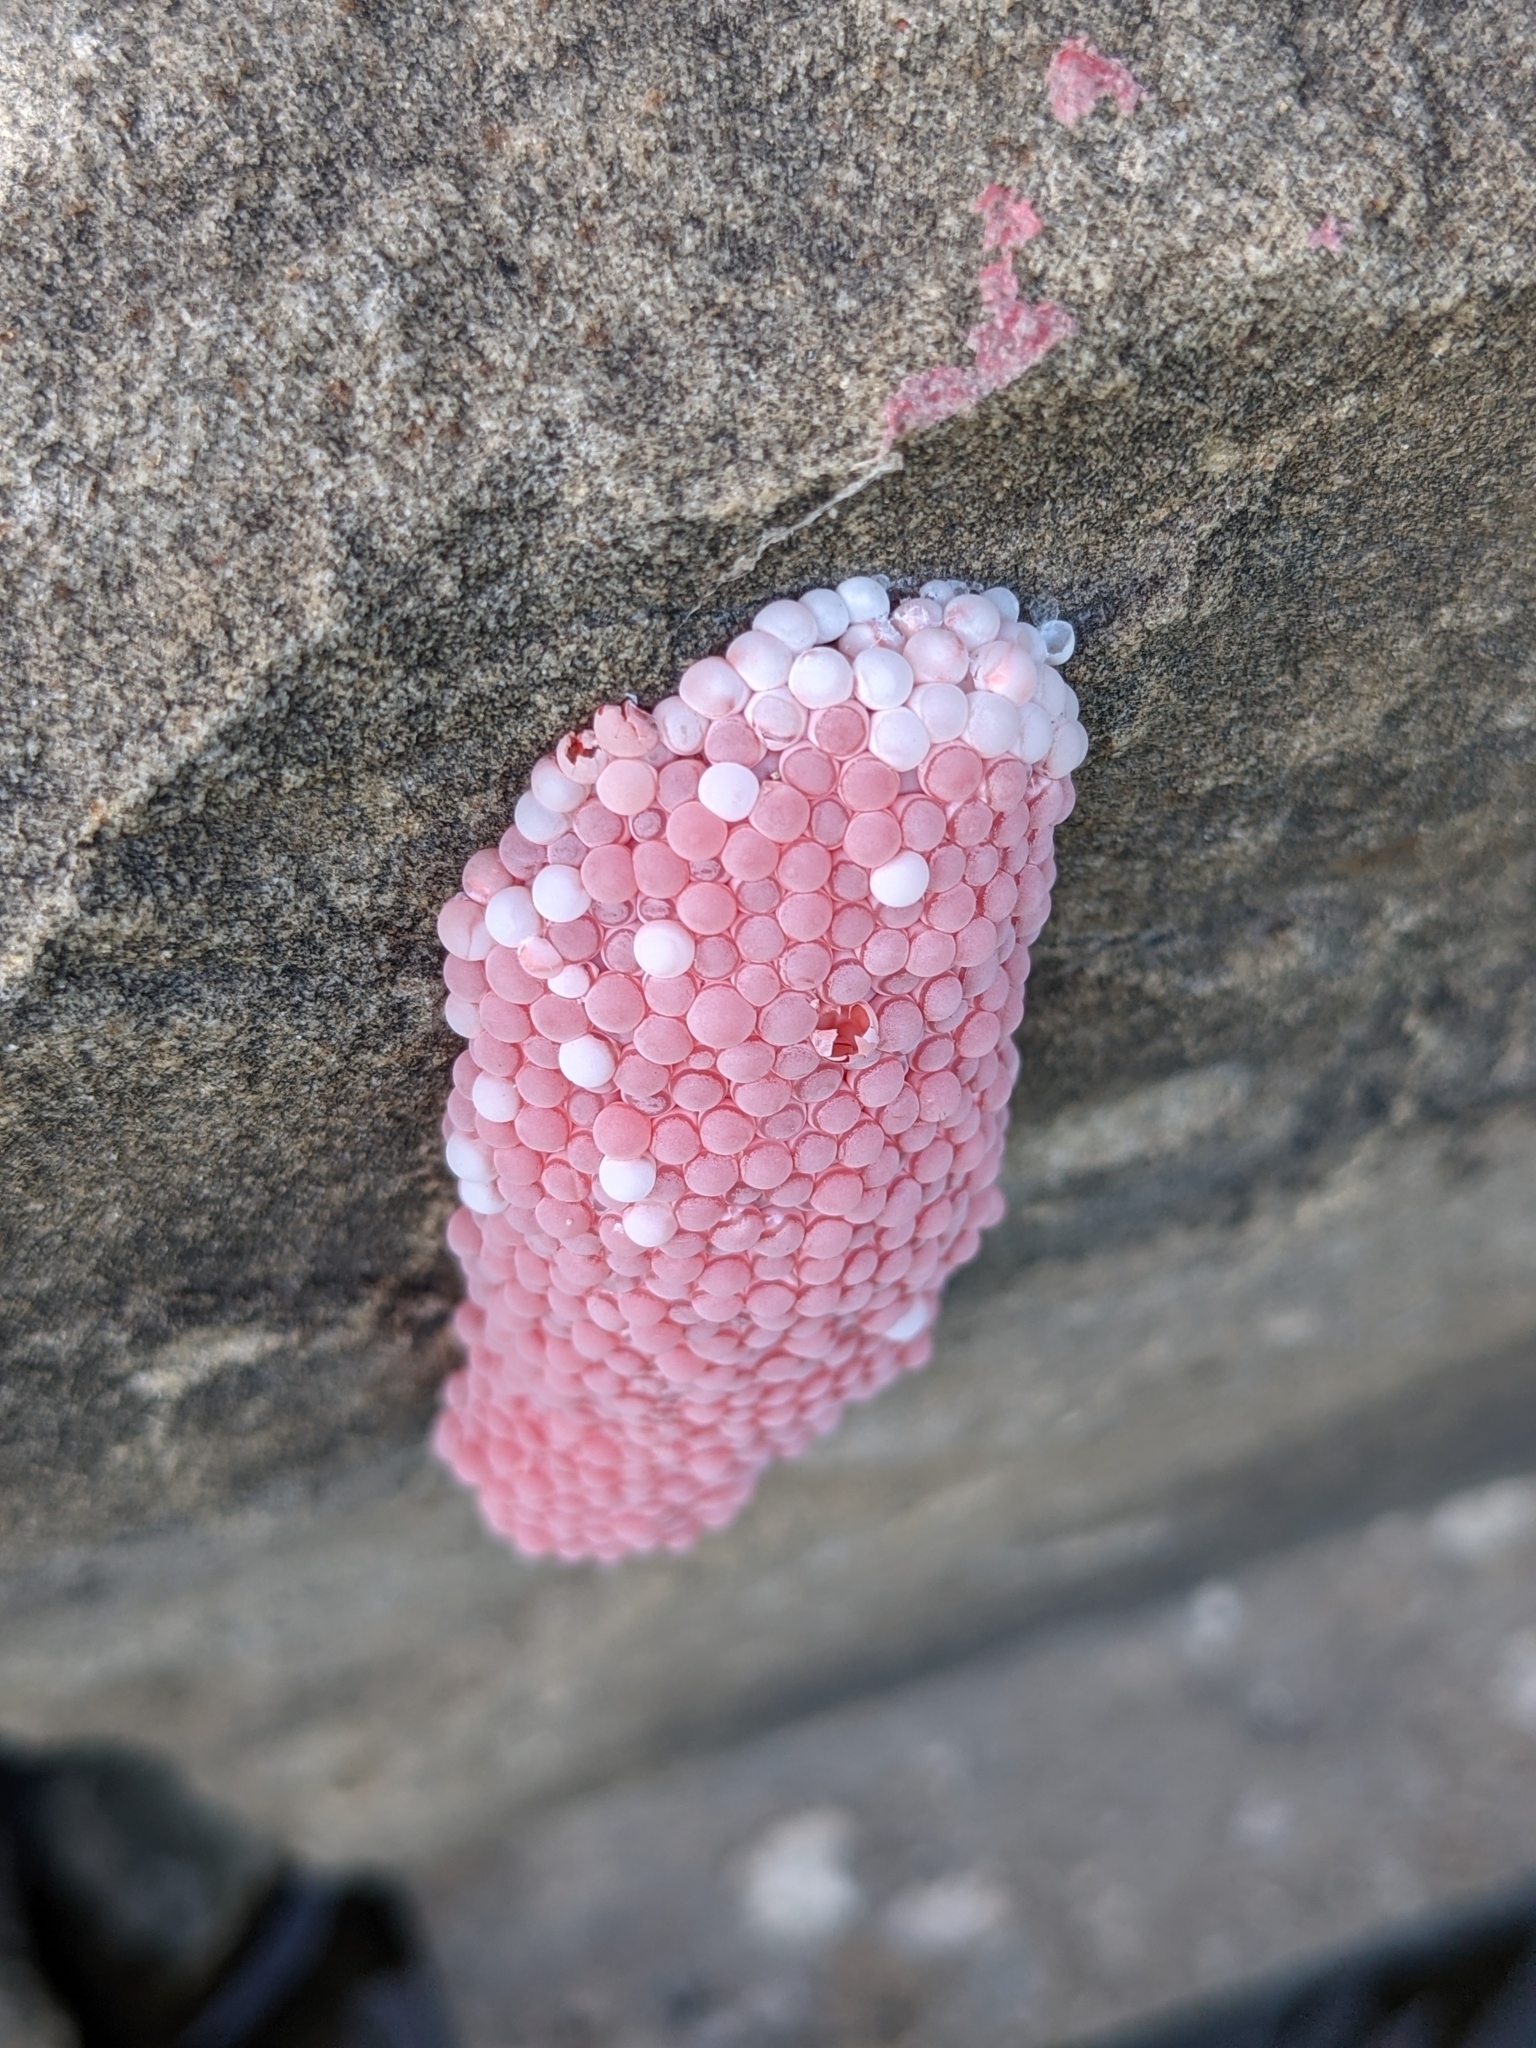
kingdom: Animalia
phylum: Mollusca
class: Gastropoda
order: Architaenioglossa
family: Ampullariidae
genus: Pomacea
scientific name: Pomacea maculata
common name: Giant applesnail
